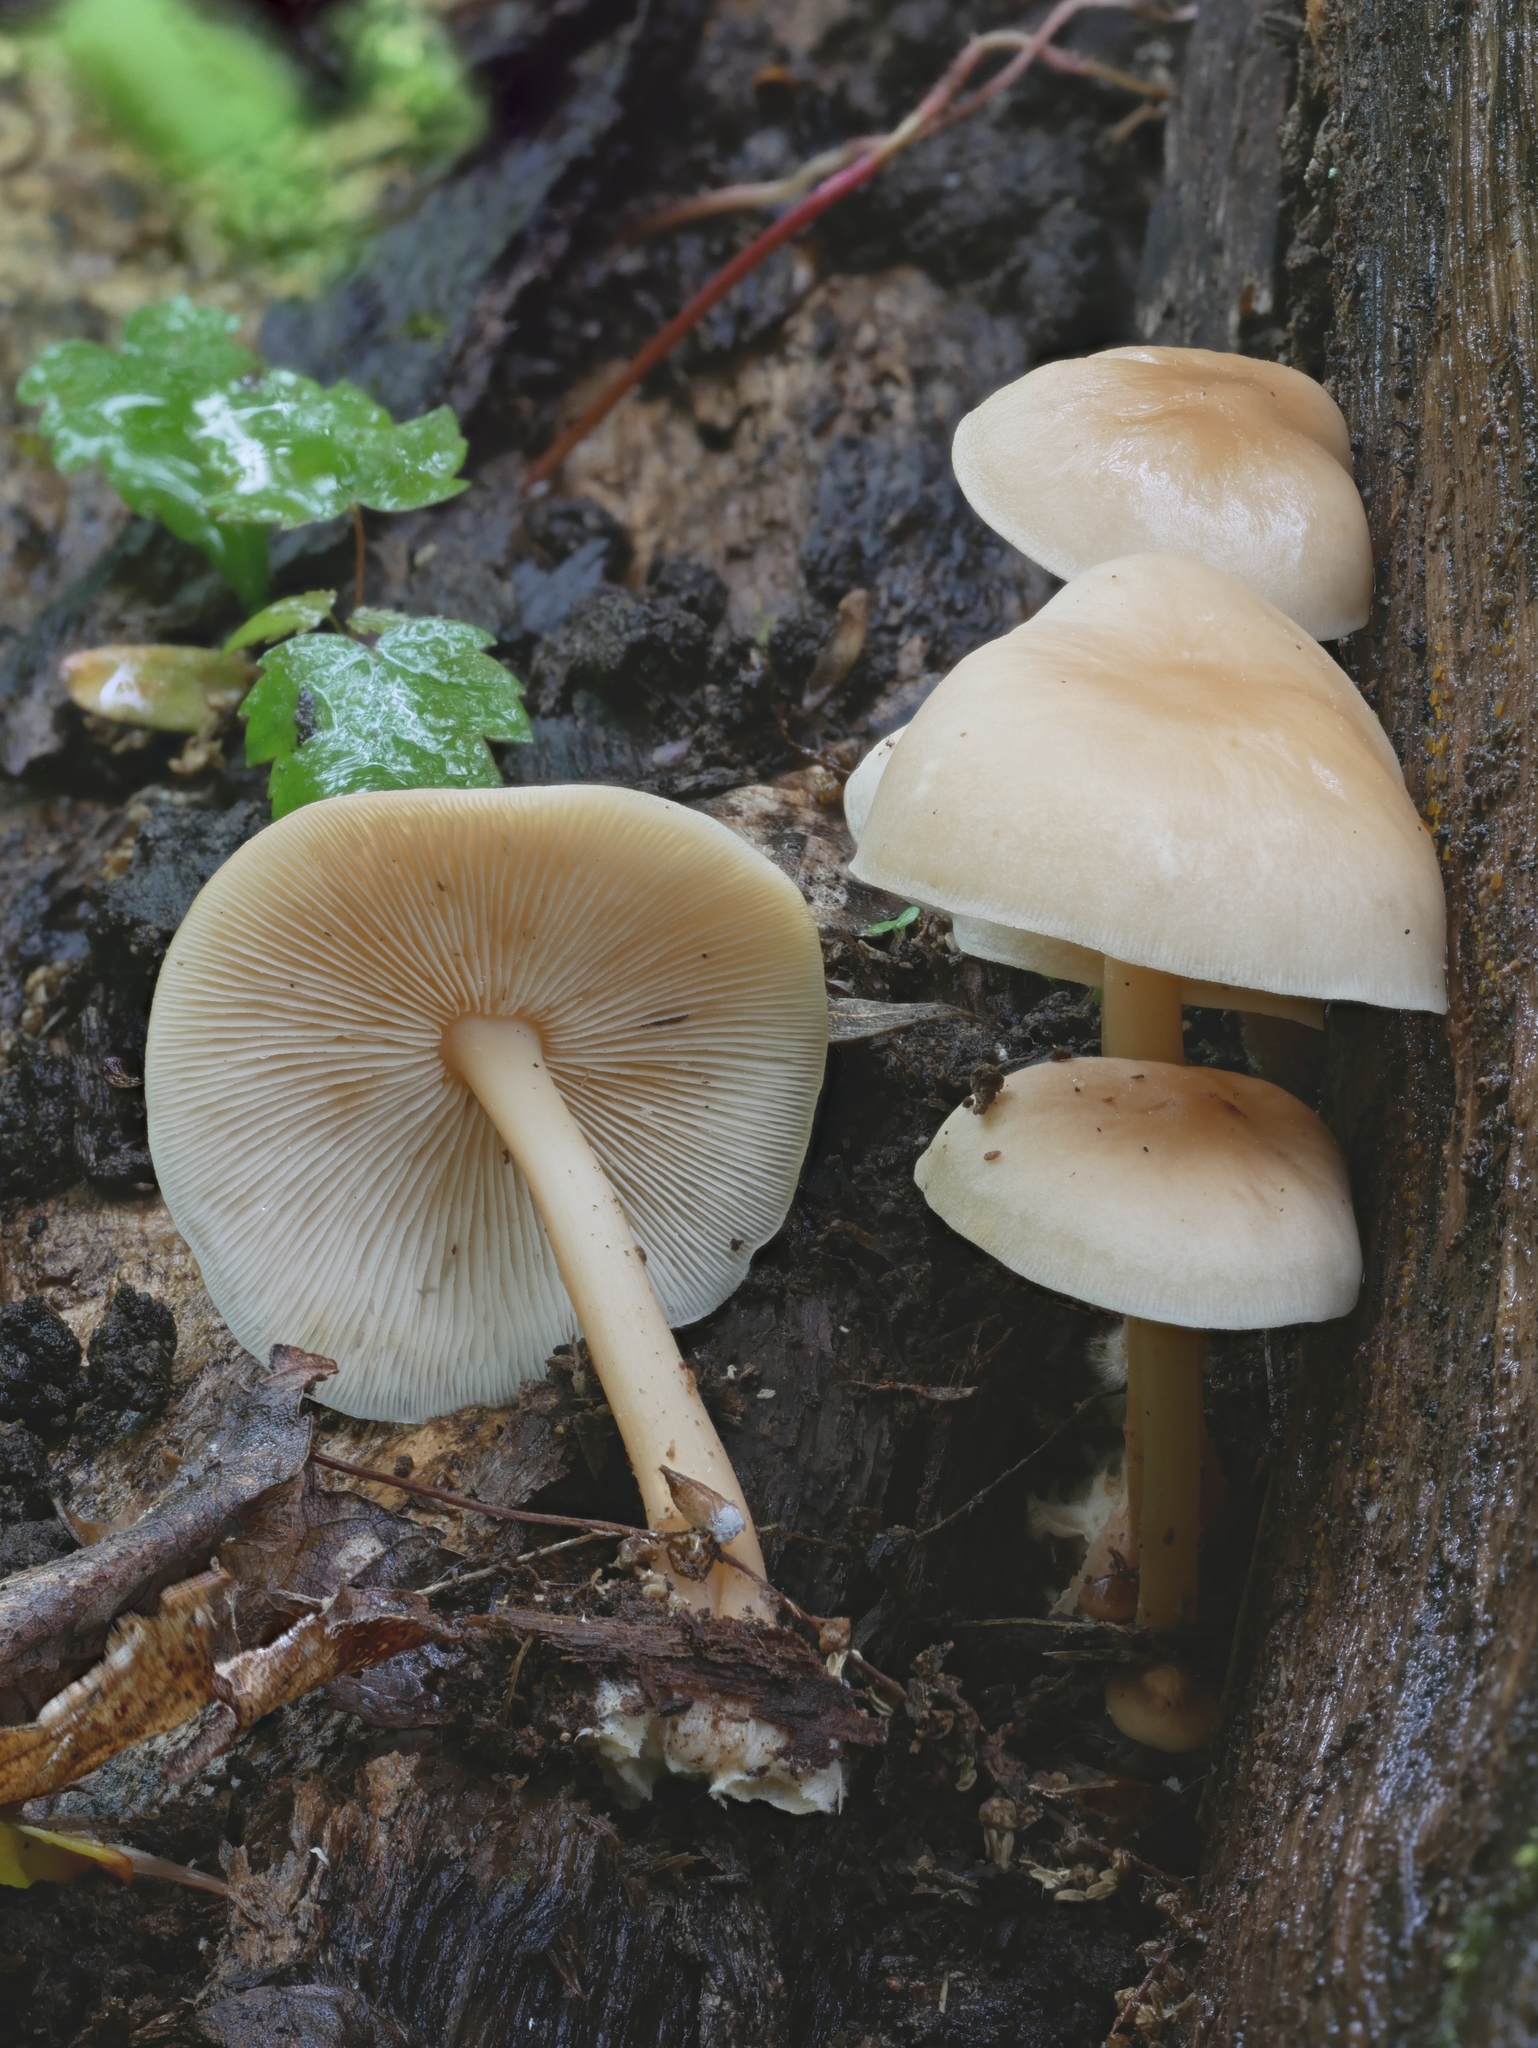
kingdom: Fungi
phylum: Basidiomycota
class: Agaricomycetes
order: Agaricales
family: Omphalotaceae
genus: Gymnopus
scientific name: Gymnopus dryophilus
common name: Penny top
